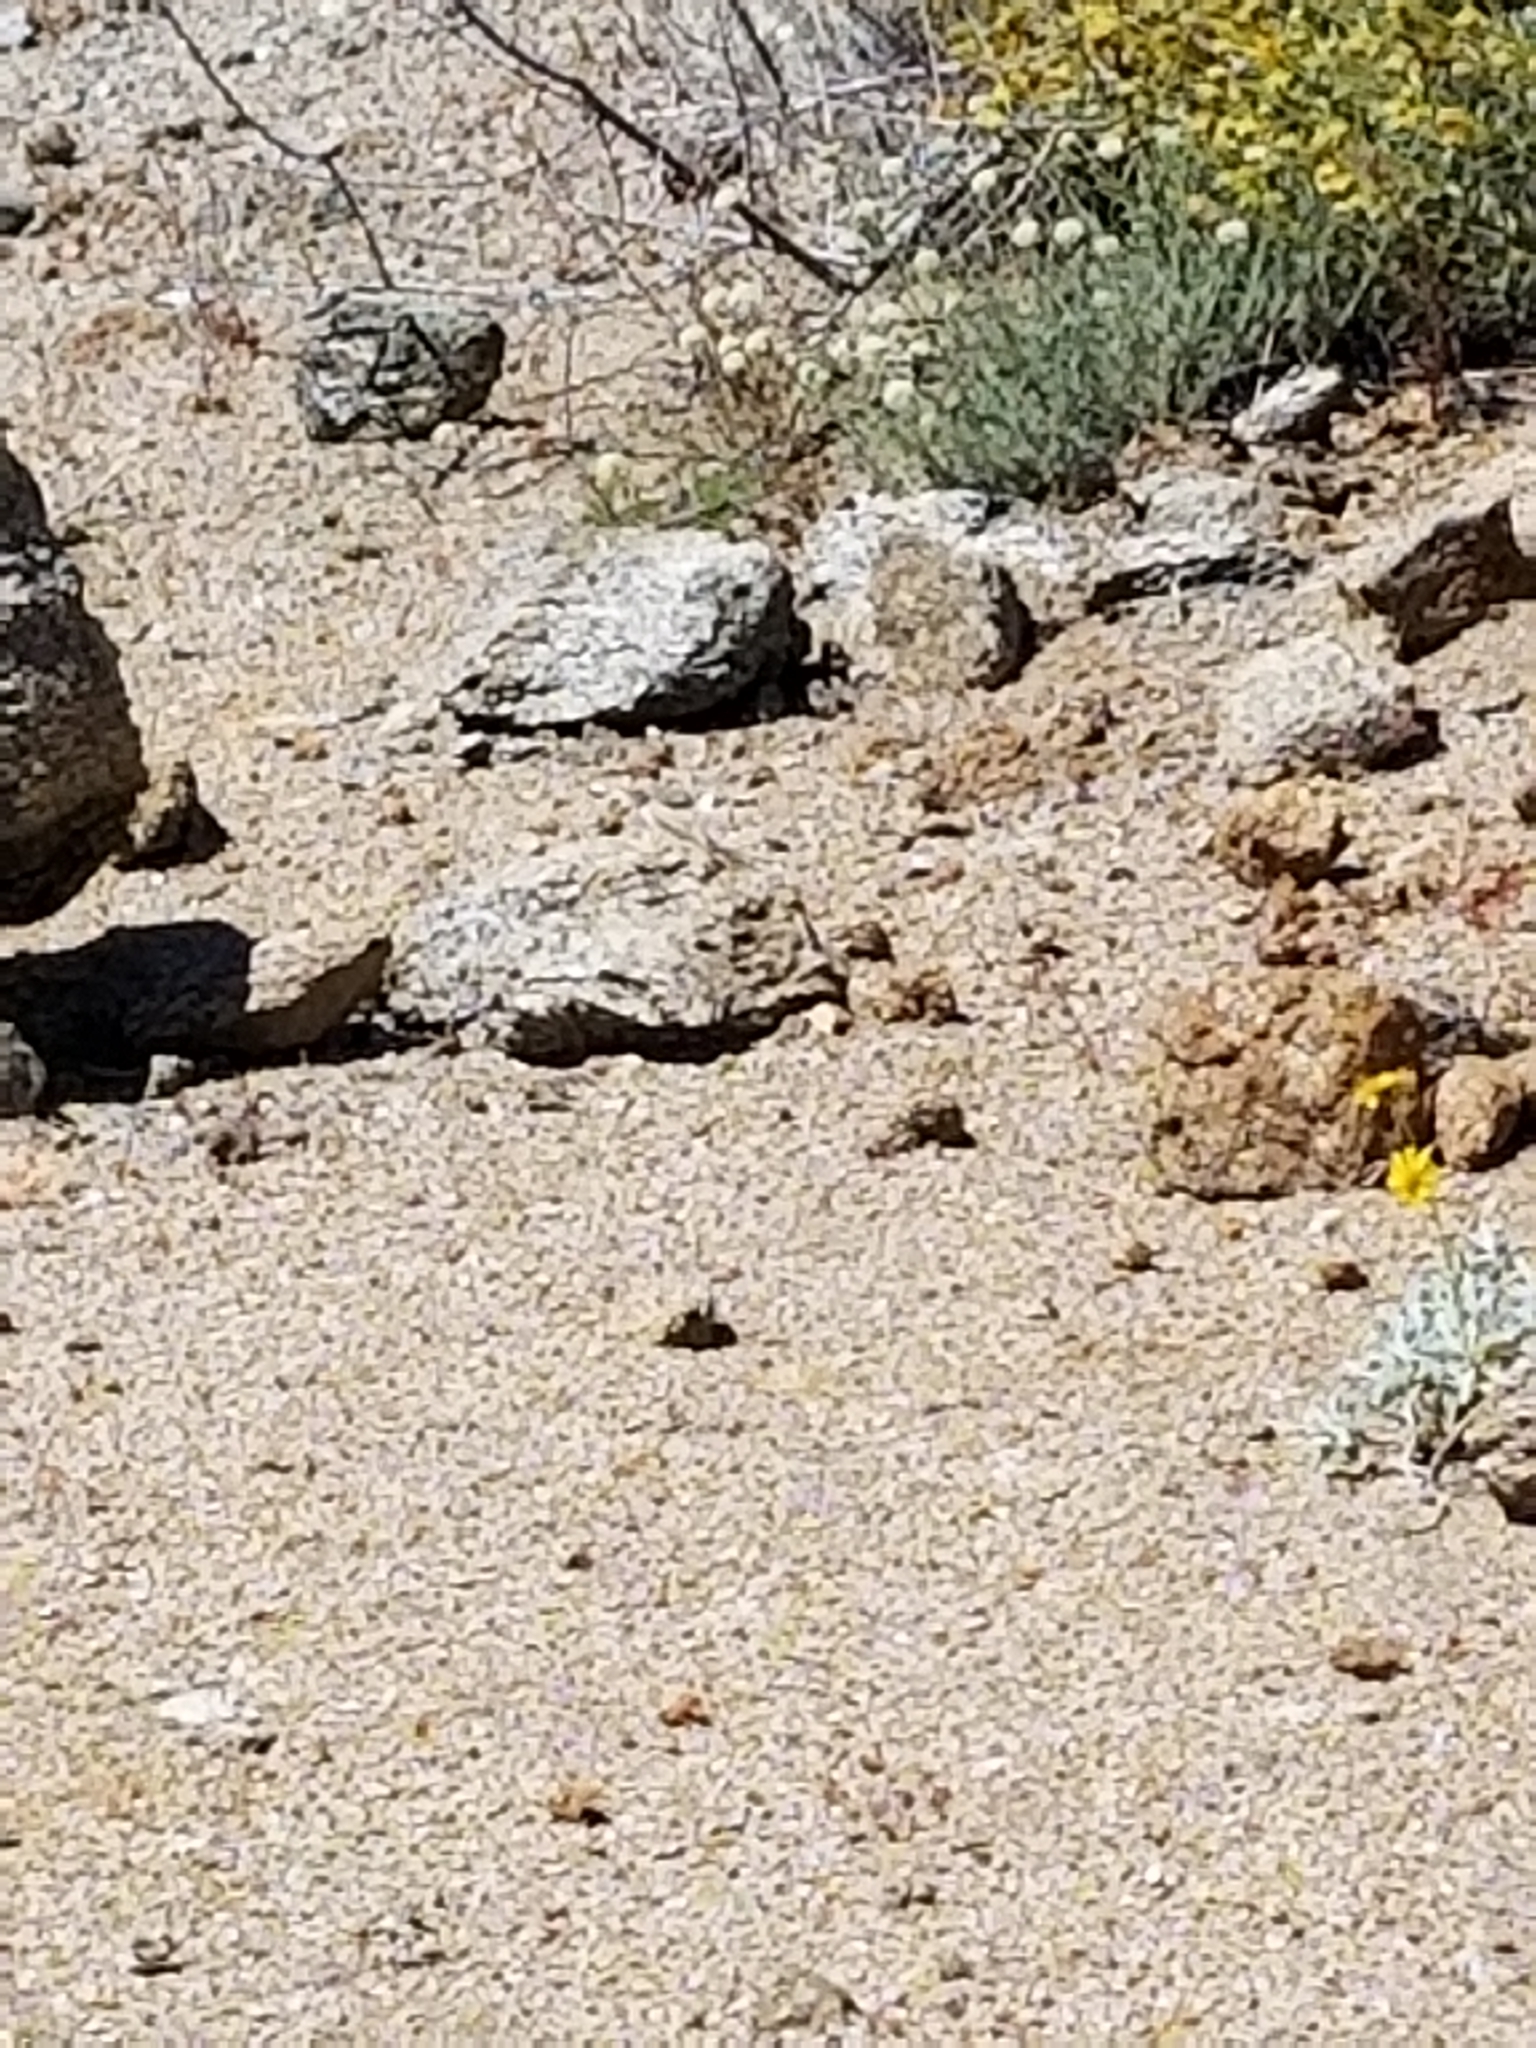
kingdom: Animalia
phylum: Chordata
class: Squamata
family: Phrynosomatidae
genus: Callisaurus
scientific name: Callisaurus draconoides
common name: Zebra-tailed lizard
